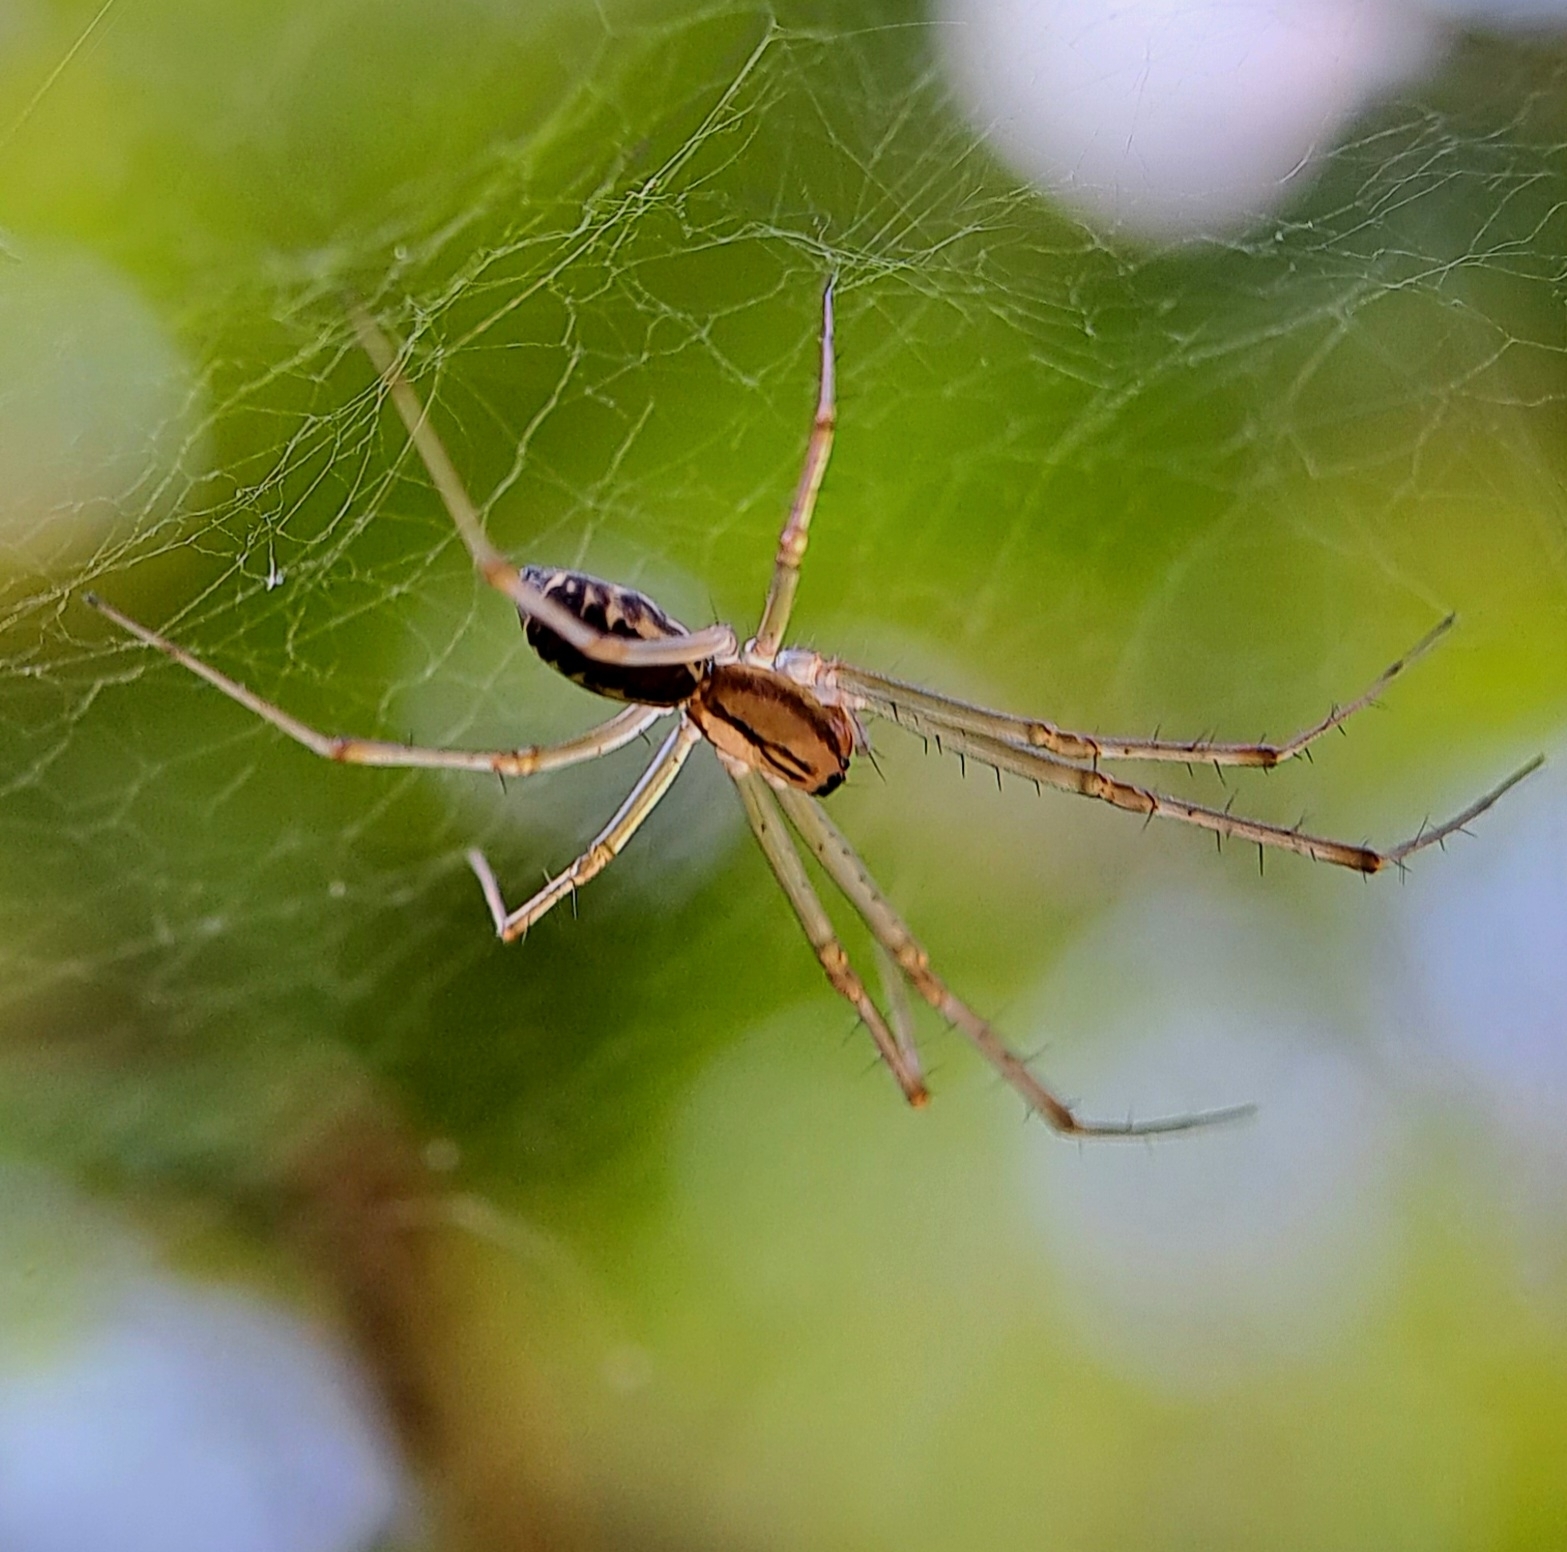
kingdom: Animalia
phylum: Arthropoda
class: Arachnida
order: Araneae
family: Linyphiidae
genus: Linyphia
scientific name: Linyphia triangularis
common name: Money spider
